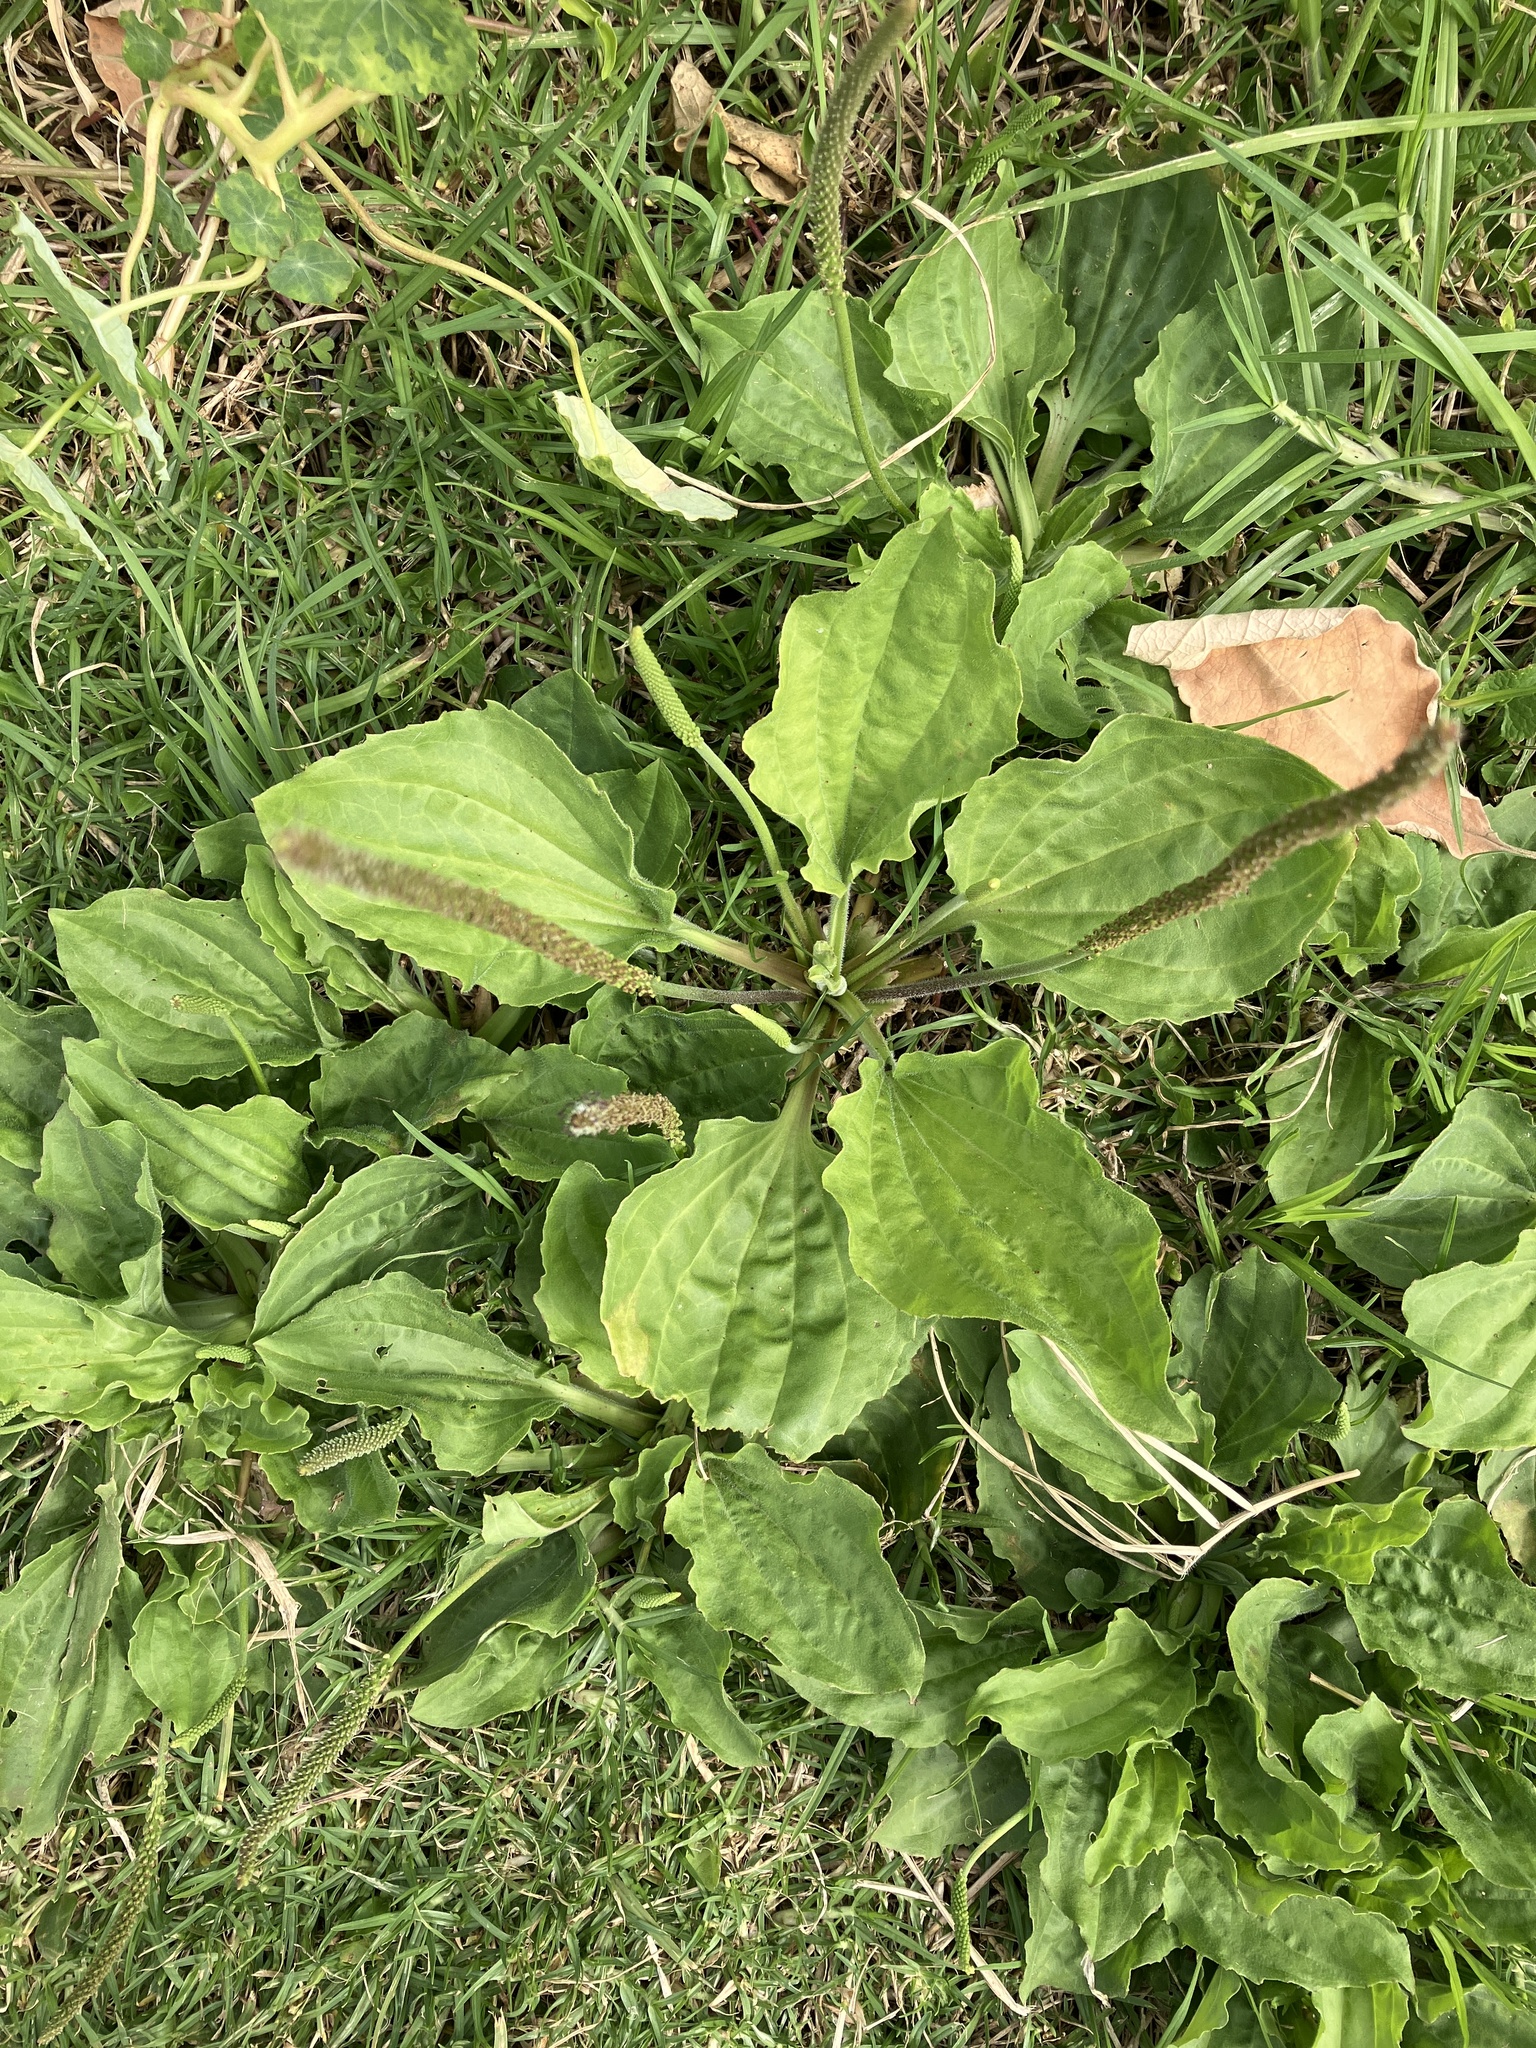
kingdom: Plantae
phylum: Tracheophyta
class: Magnoliopsida
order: Lamiales
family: Plantaginaceae
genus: Plantago
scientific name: Plantago major
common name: Common plantain
